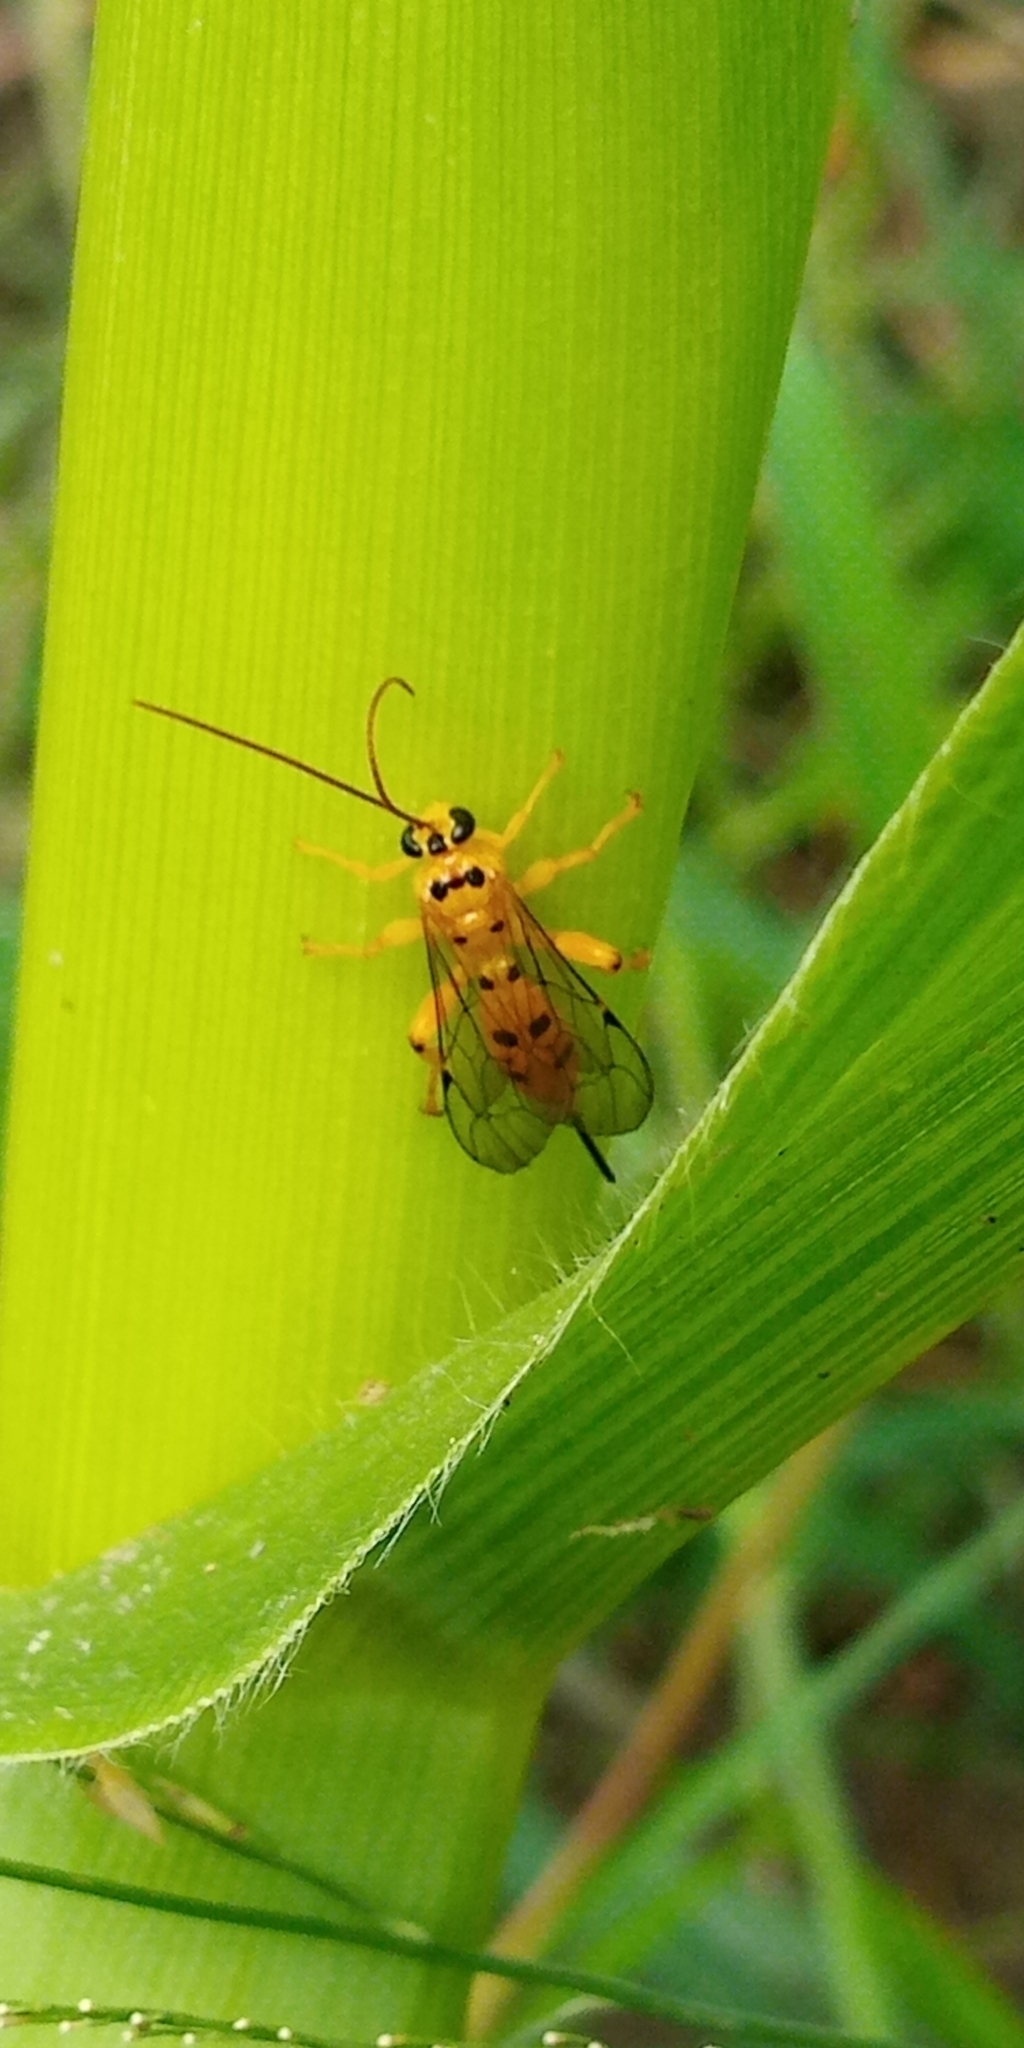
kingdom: Animalia
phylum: Arthropoda
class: Insecta
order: Hymenoptera
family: Ichneumonidae
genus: Xanthopimpla
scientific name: Xanthopimpla pedator
